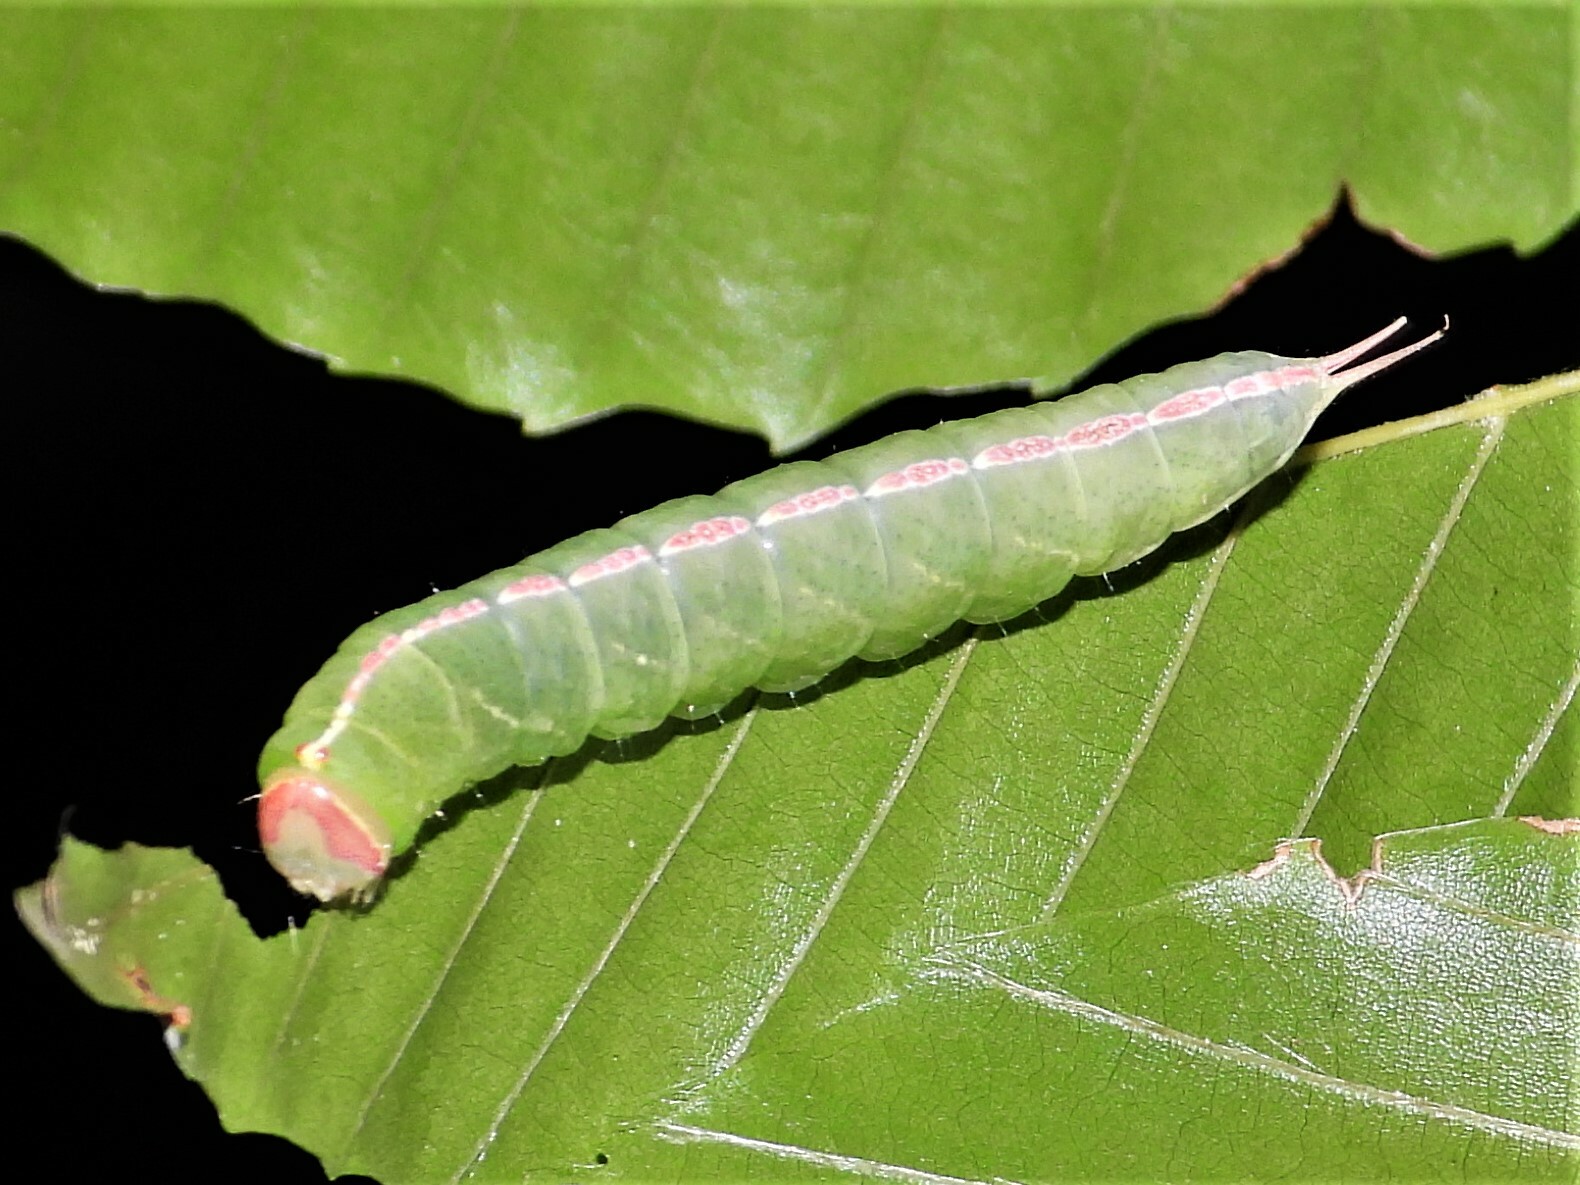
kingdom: Animalia
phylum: Arthropoda
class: Insecta
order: Lepidoptera
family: Notodontidae
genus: Macrurocampa
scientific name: Macrurocampa marthesia
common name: Mottled prominent
